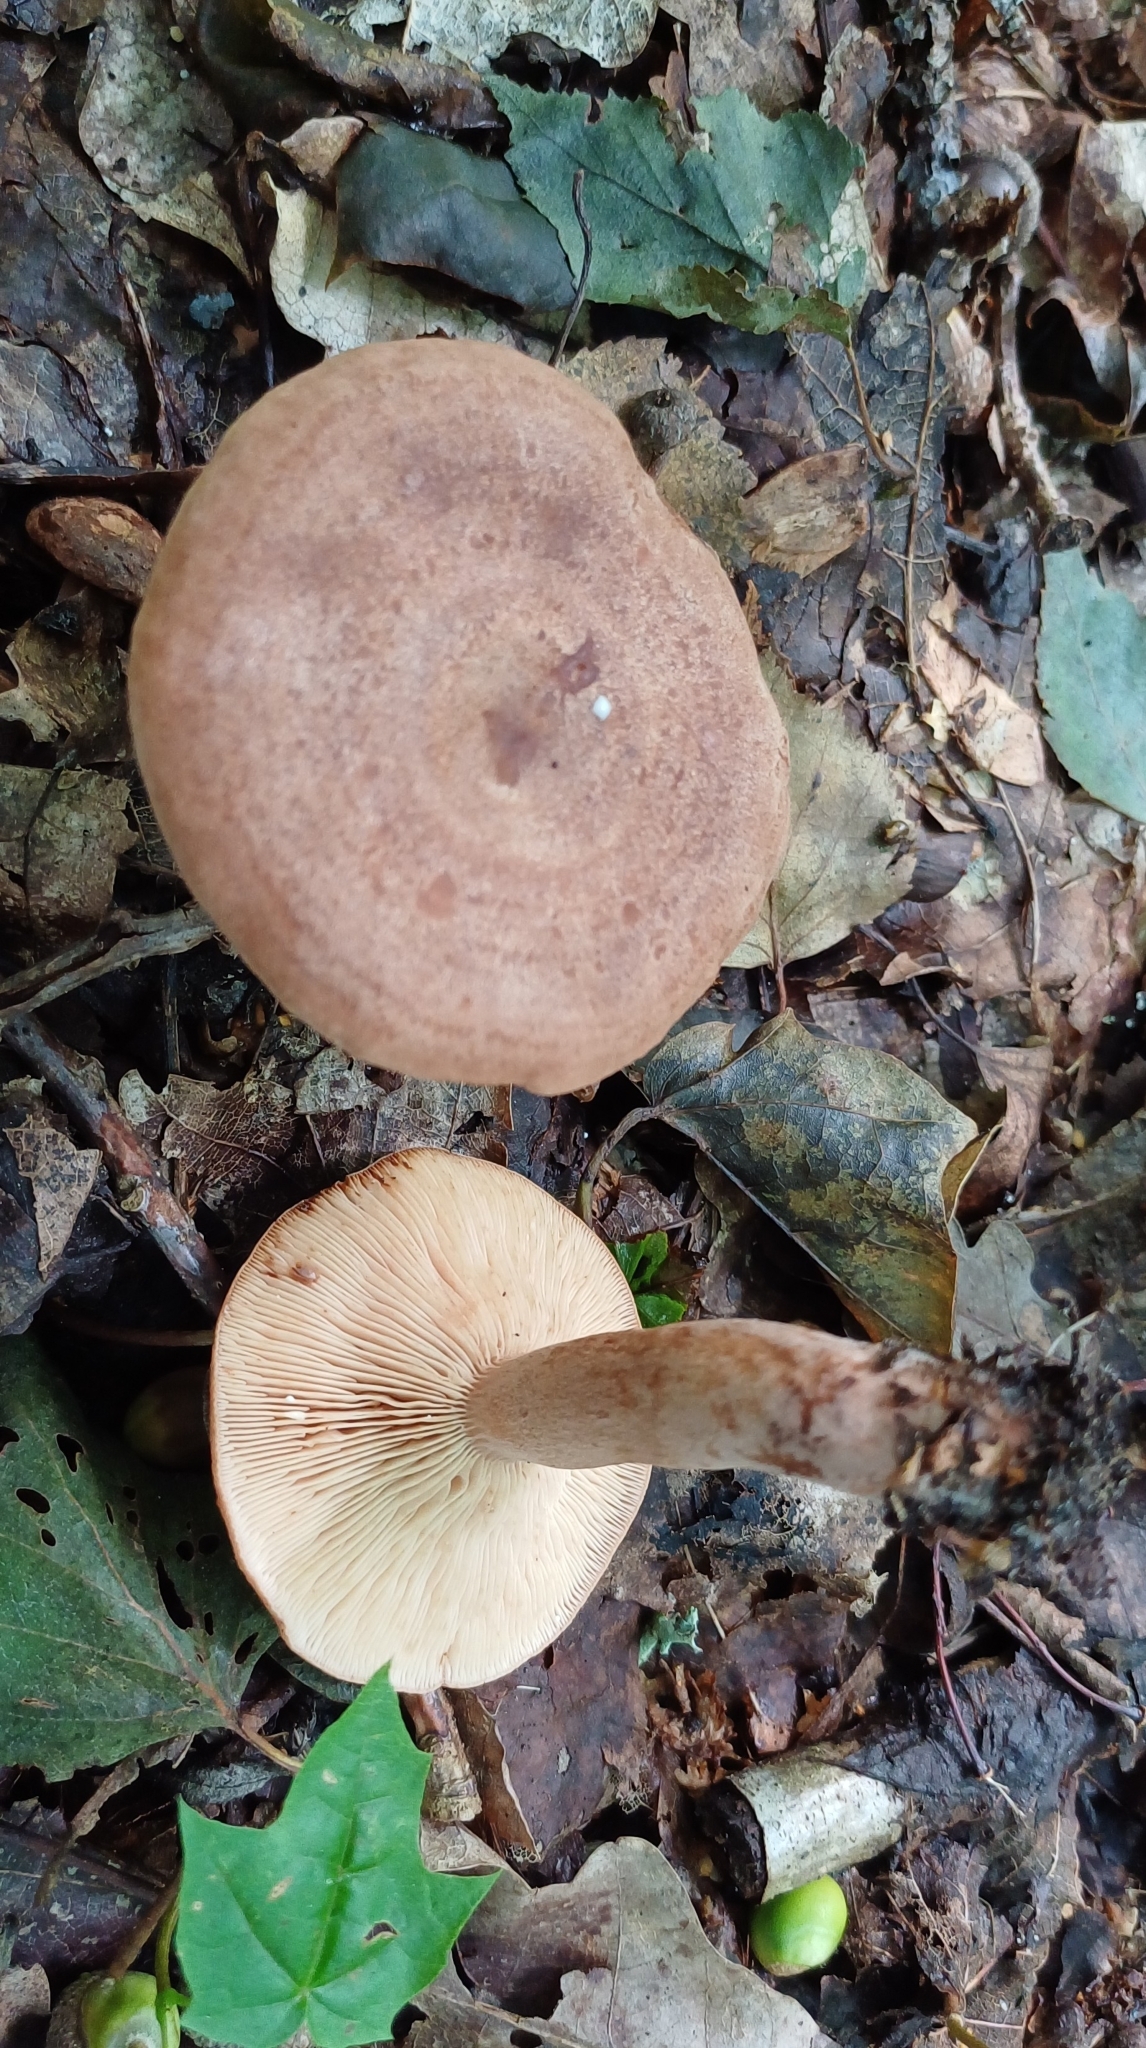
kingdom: Fungi
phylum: Basidiomycota
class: Agaricomycetes
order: Russulales
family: Russulaceae
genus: Lactarius
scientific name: Lactarius quietus
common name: Oak milk-cap
